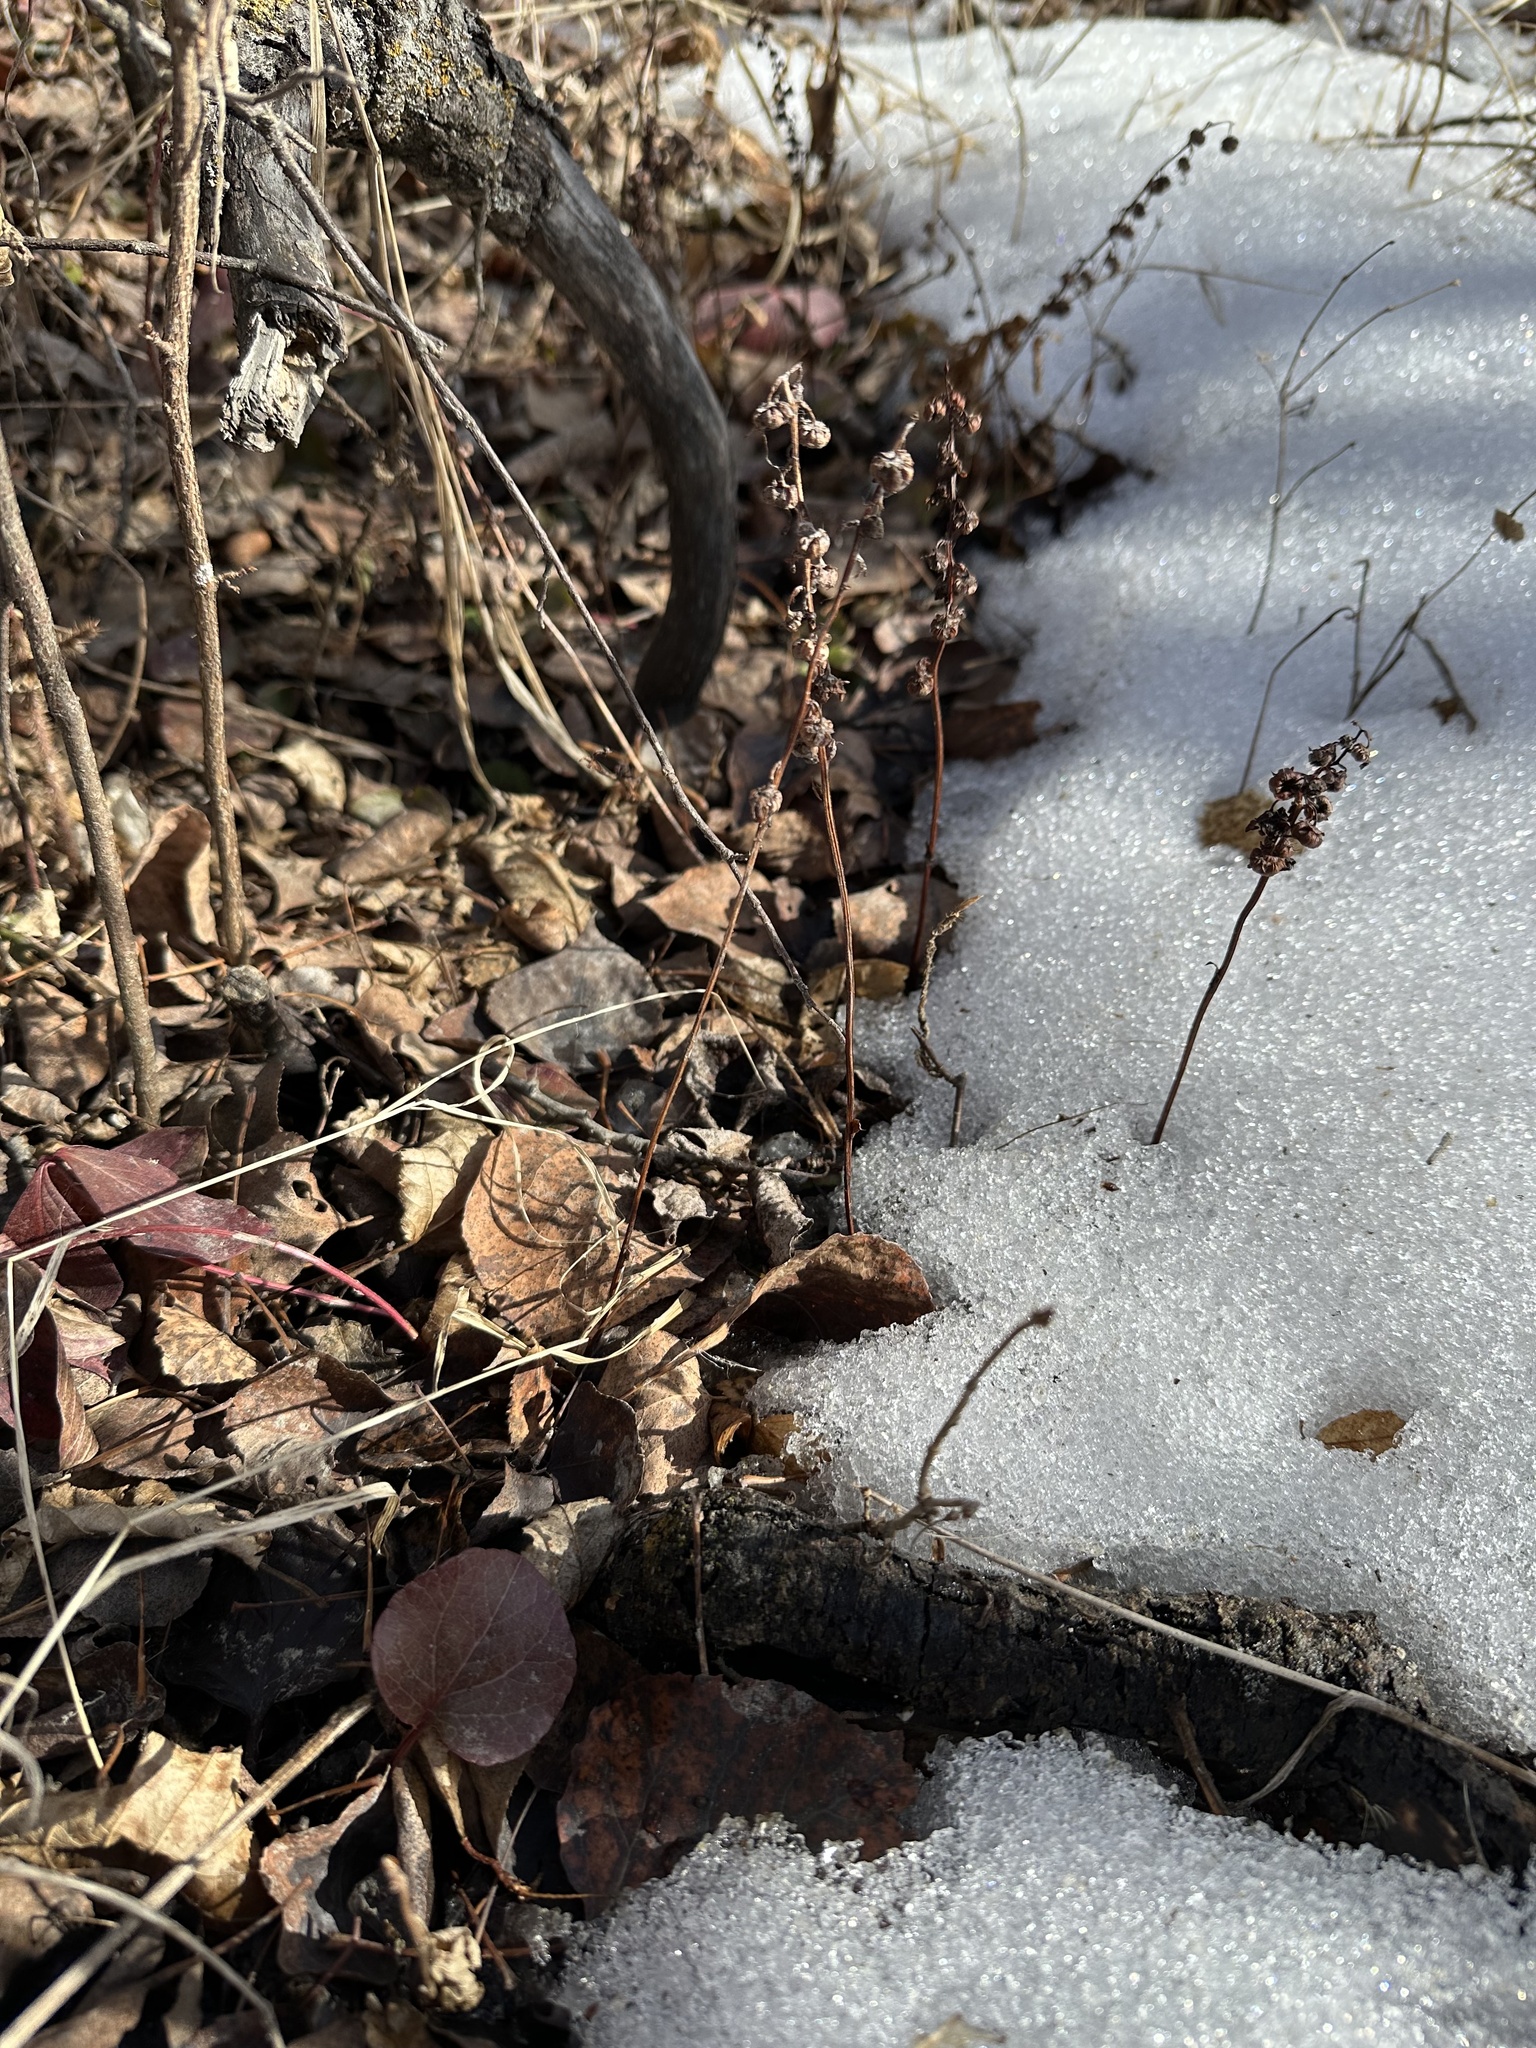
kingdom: Plantae
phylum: Tracheophyta
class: Magnoliopsida
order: Ericales
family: Ericaceae
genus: Pyrola
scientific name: Pyrola asarifolia
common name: Bog wintergreen
